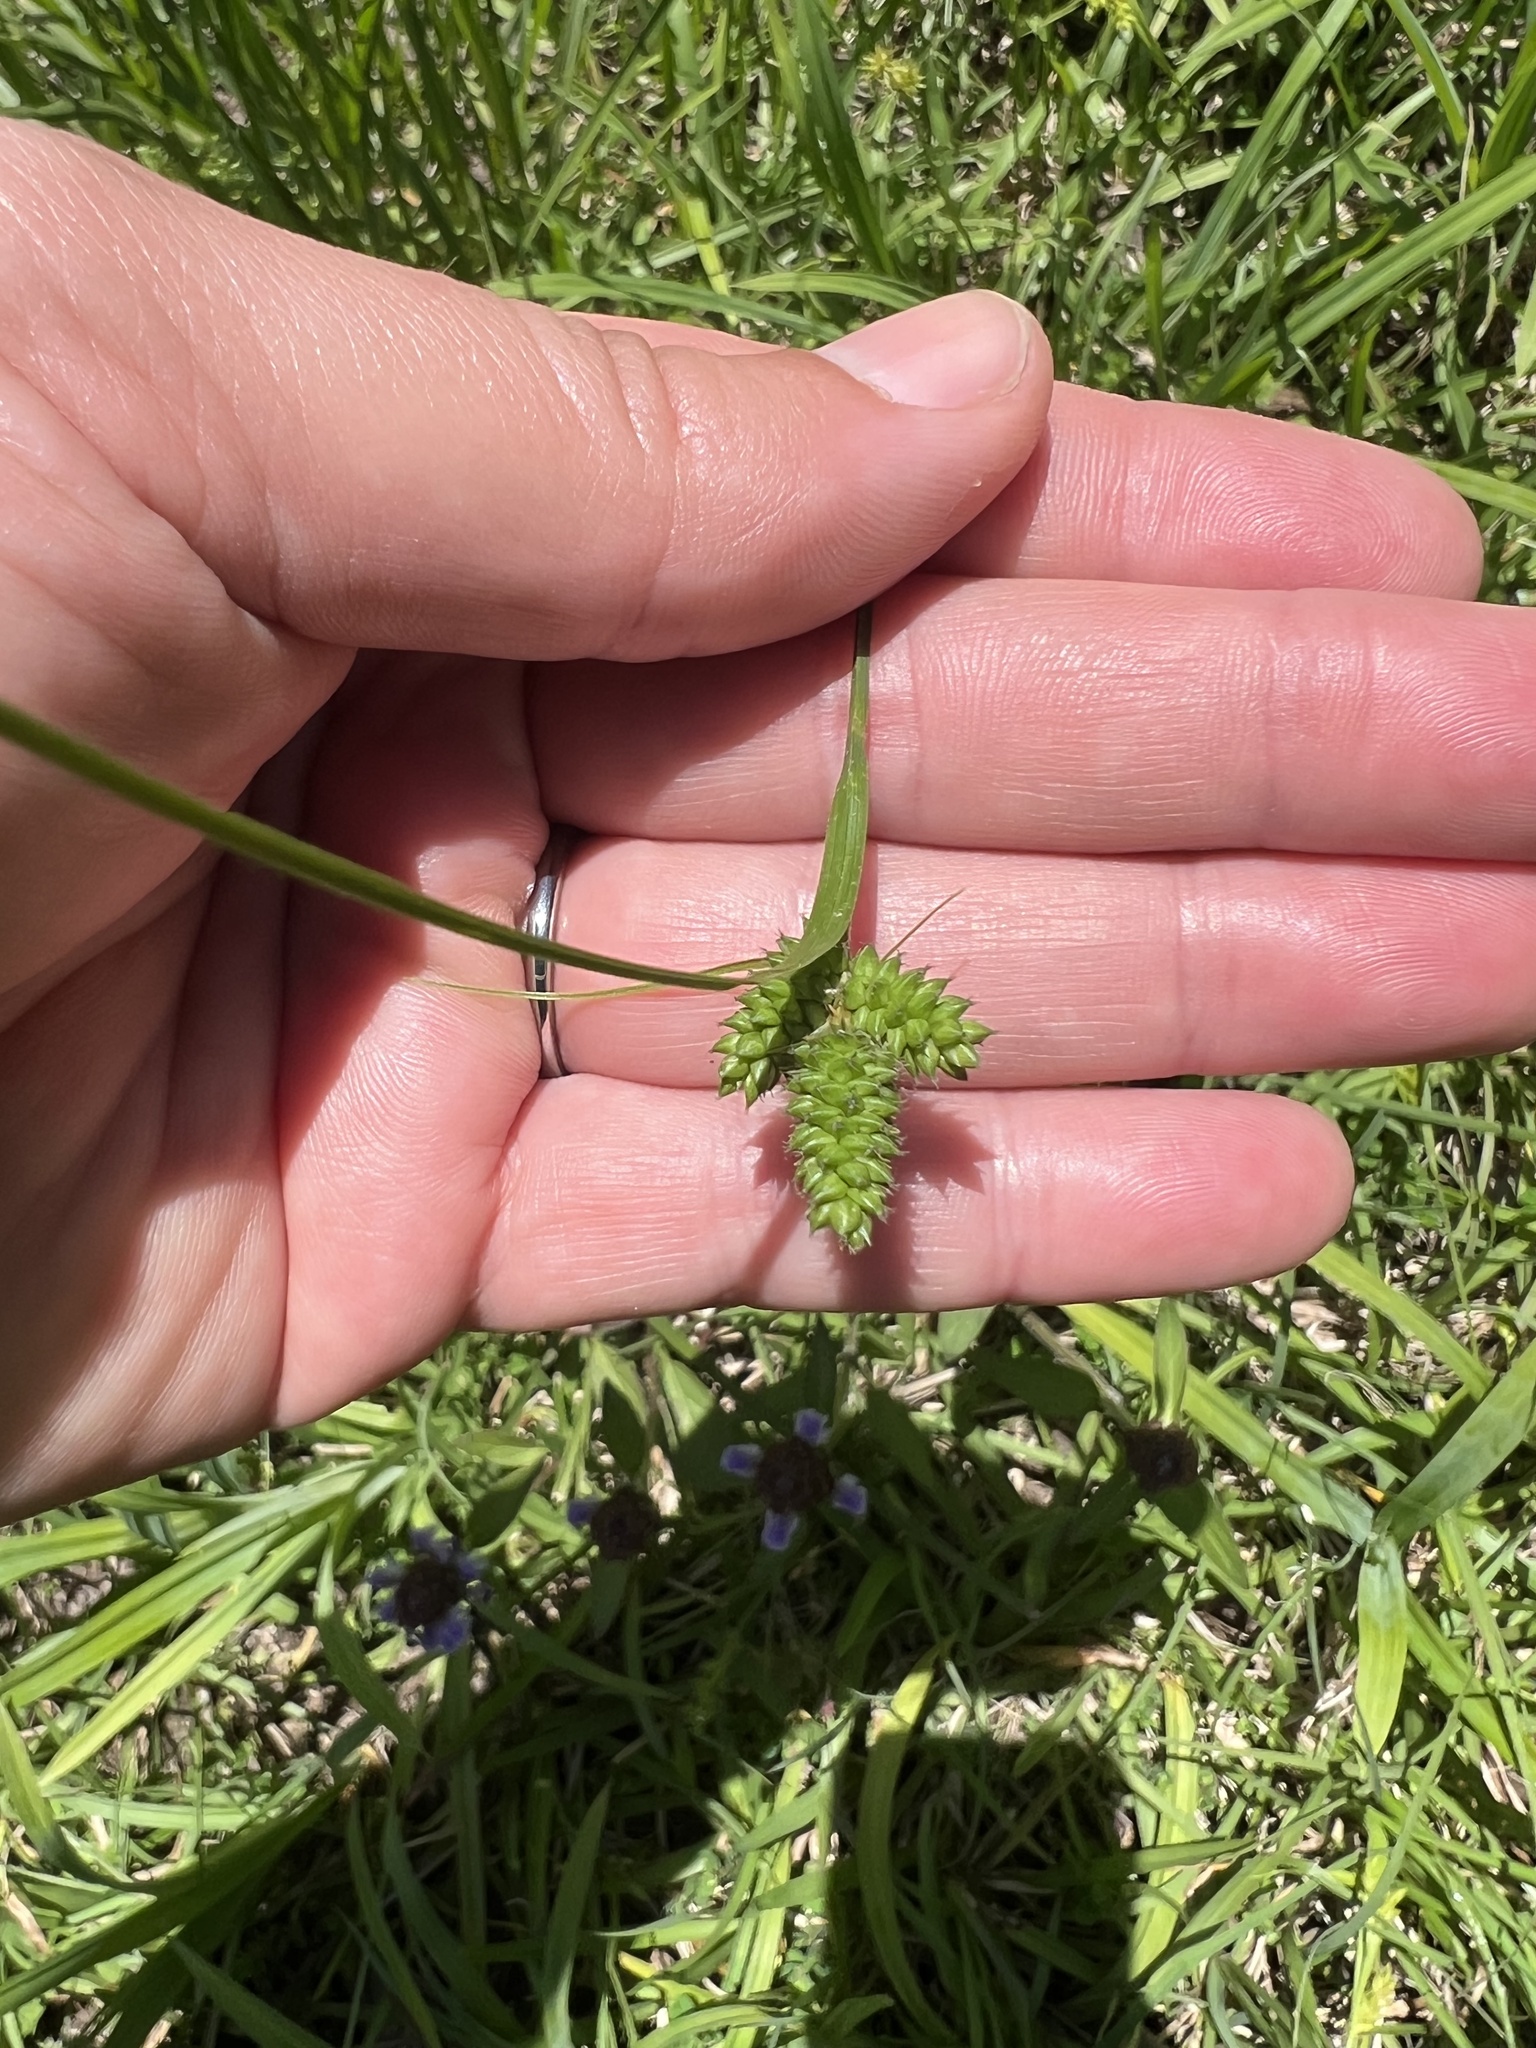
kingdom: Plantae
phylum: Tracheophyta
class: Liliopsida
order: Poales
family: Cyperaceae
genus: Carex
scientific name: Carex complanata
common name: Hirsute sedge
